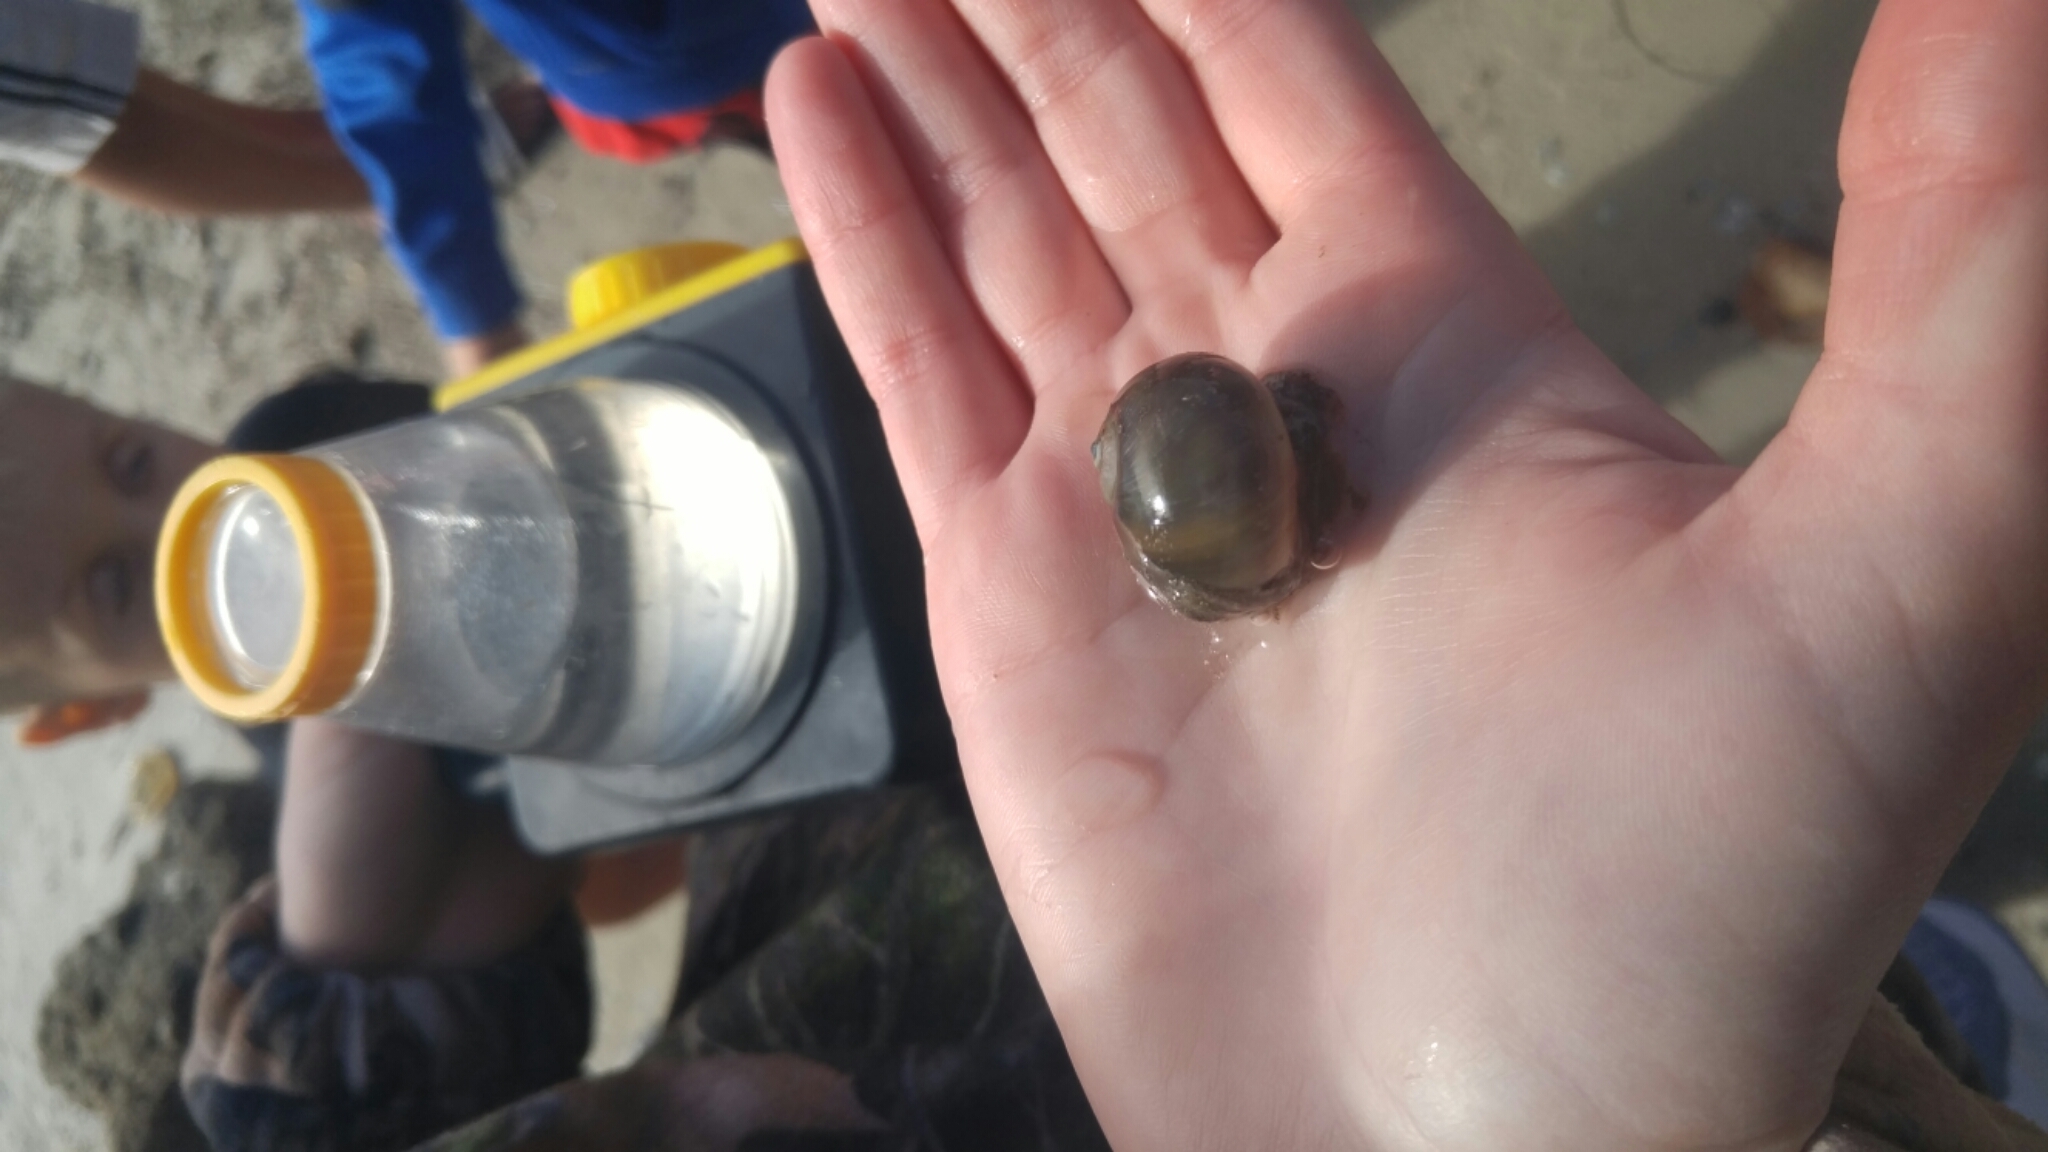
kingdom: Animalia
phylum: Mollusca
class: Gastropoda
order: Littorinimorpha
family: Naticidae
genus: Neverita
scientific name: Neverita duplicata
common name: Lobed moonsnail
